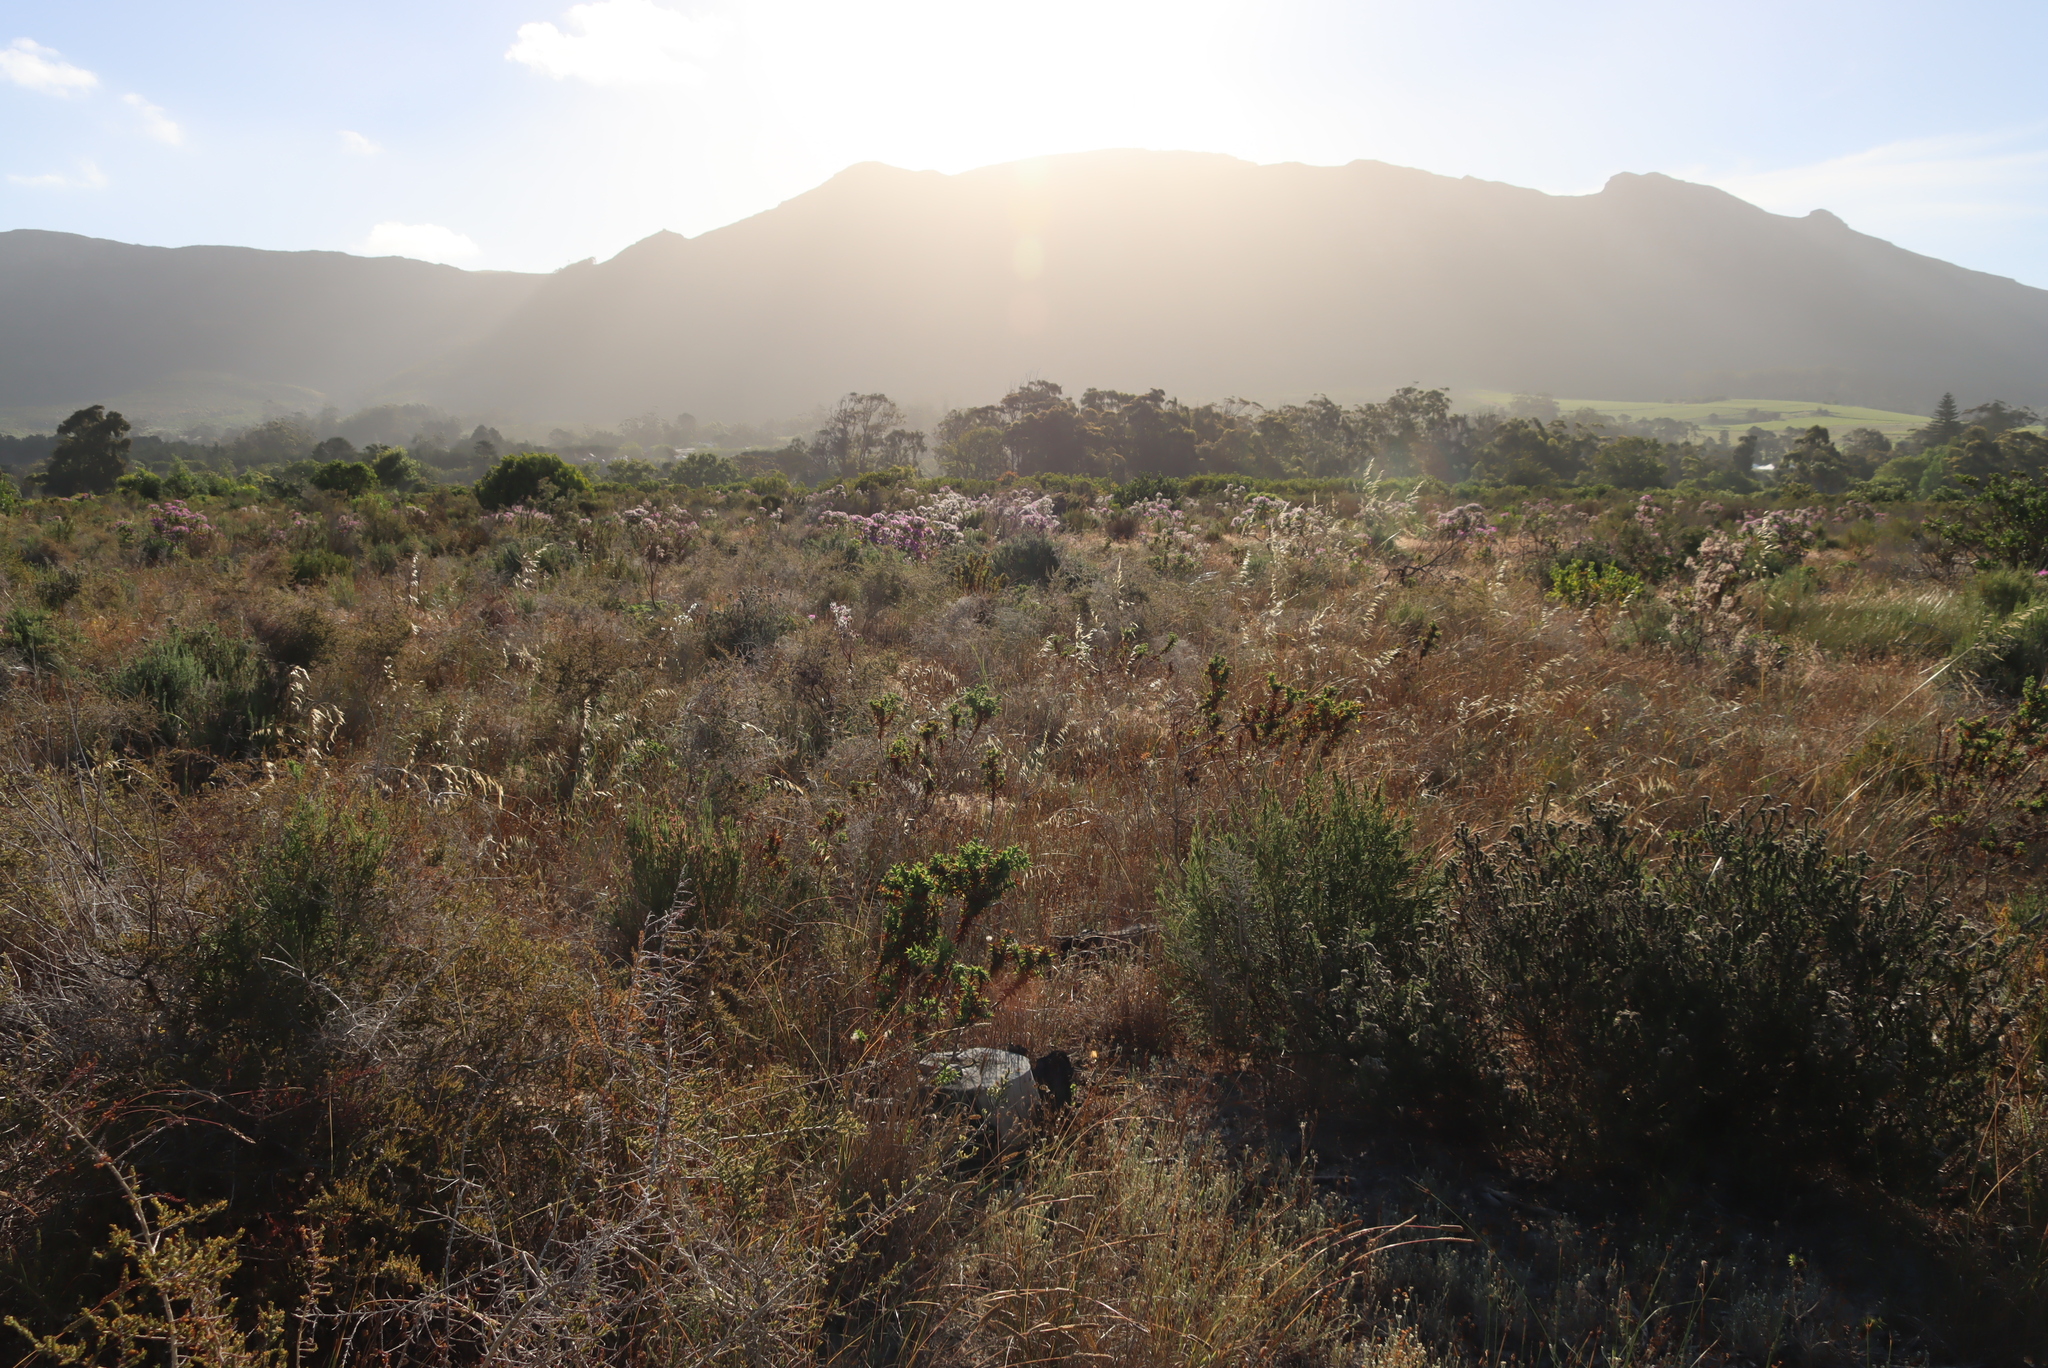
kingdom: Plantae
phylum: Tracheophyta
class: Magnoliopsida
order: Fabales
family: Fabaceae
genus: Aspalathus
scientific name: Aspalathus cordata
